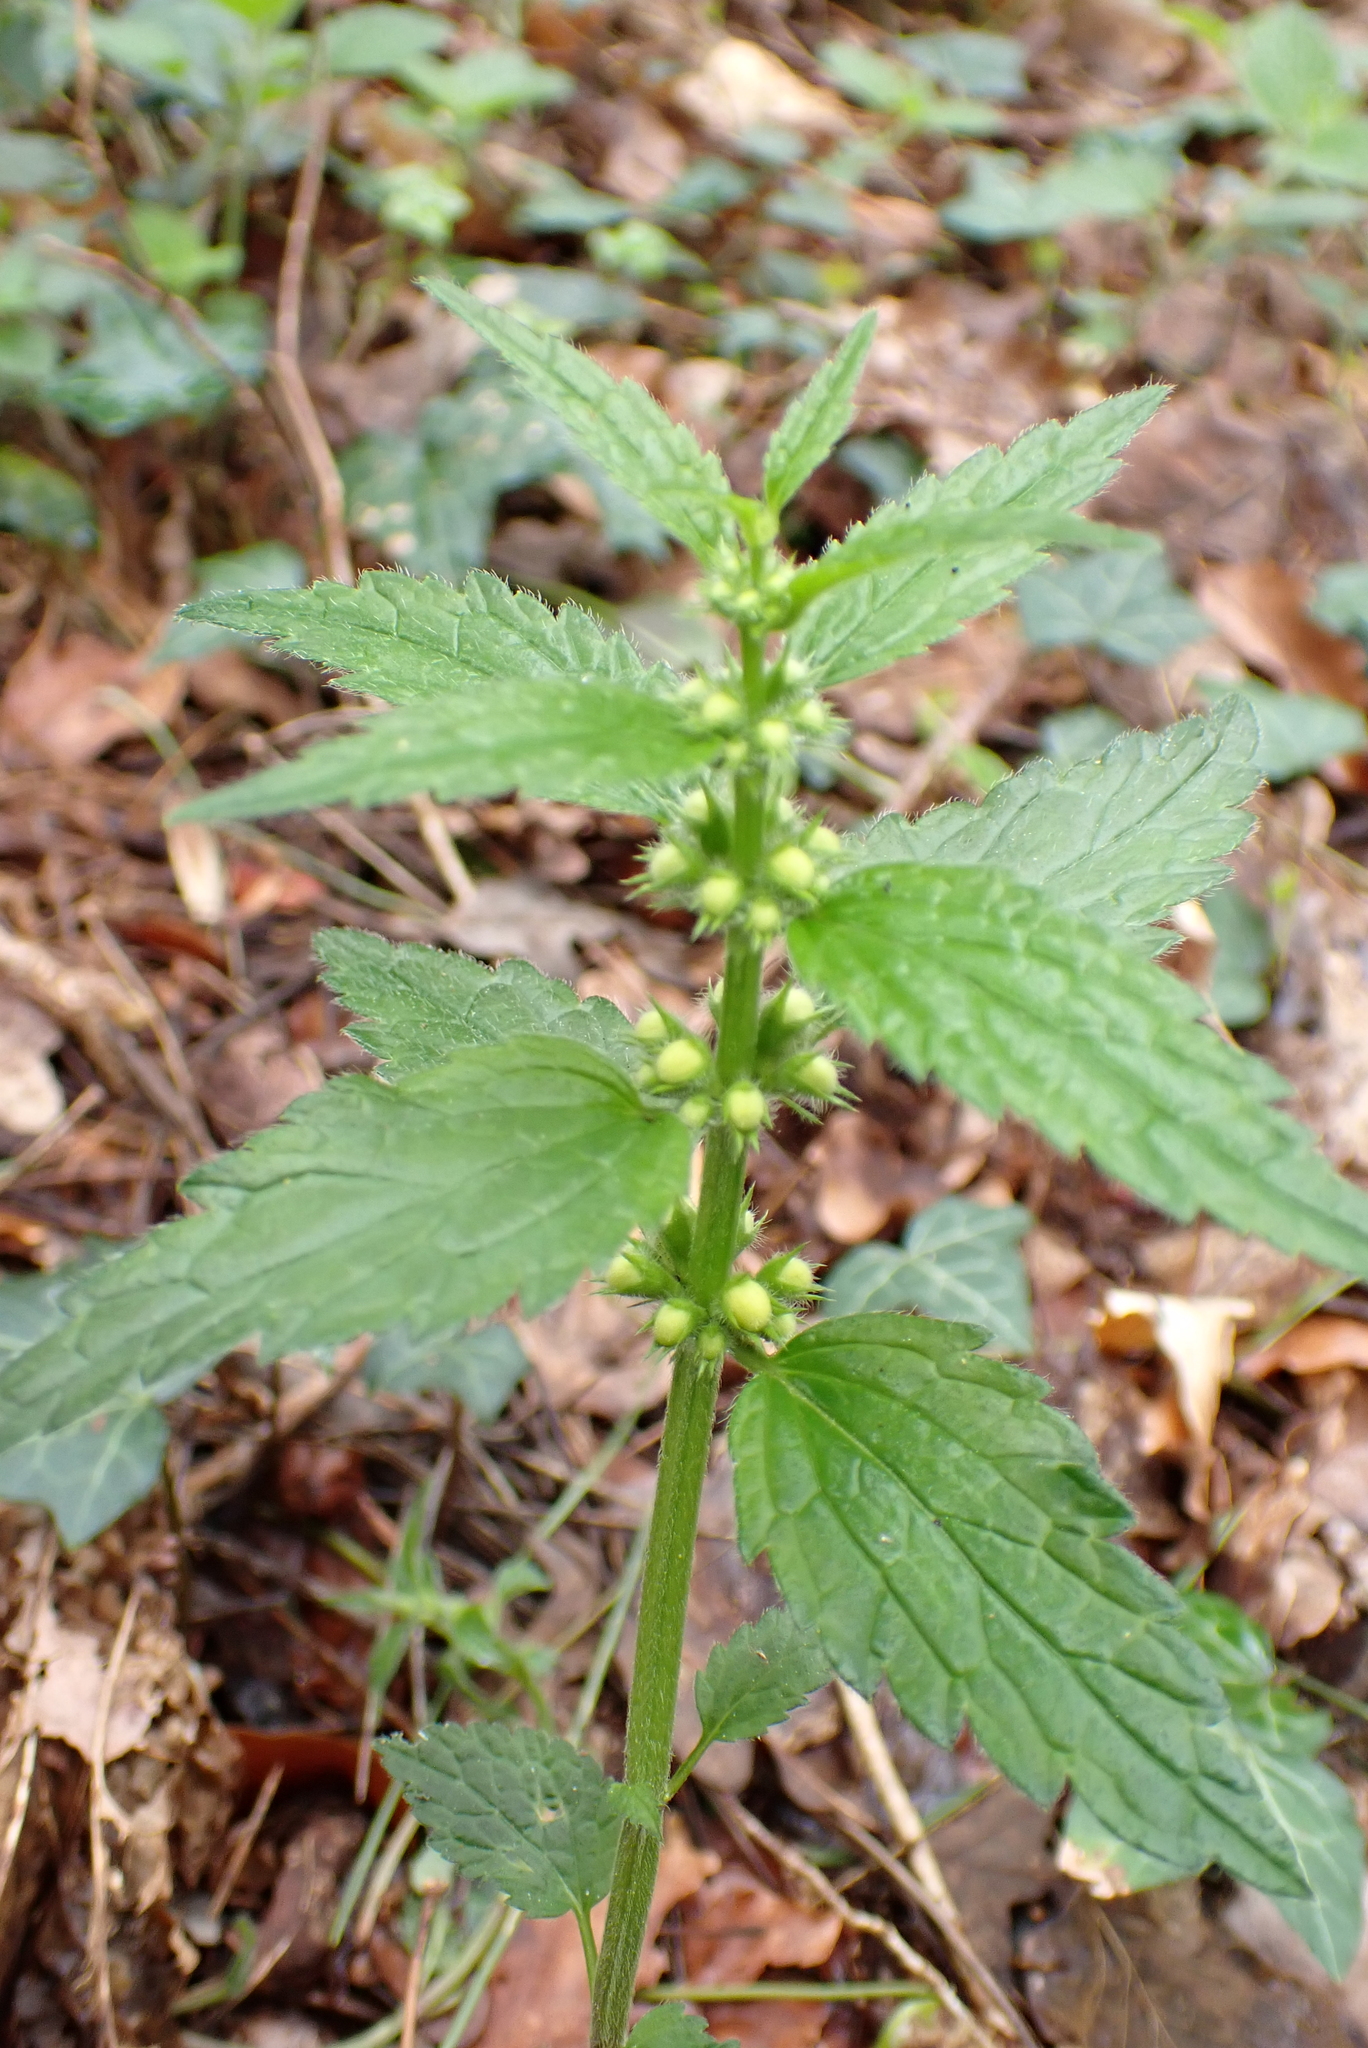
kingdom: Plantae
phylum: Tracheophyta
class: Magnoliopsida
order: Lamiales
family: Lamiaceae
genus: Lamium
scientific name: Lamium galeobdolon
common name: Yellow archangel
